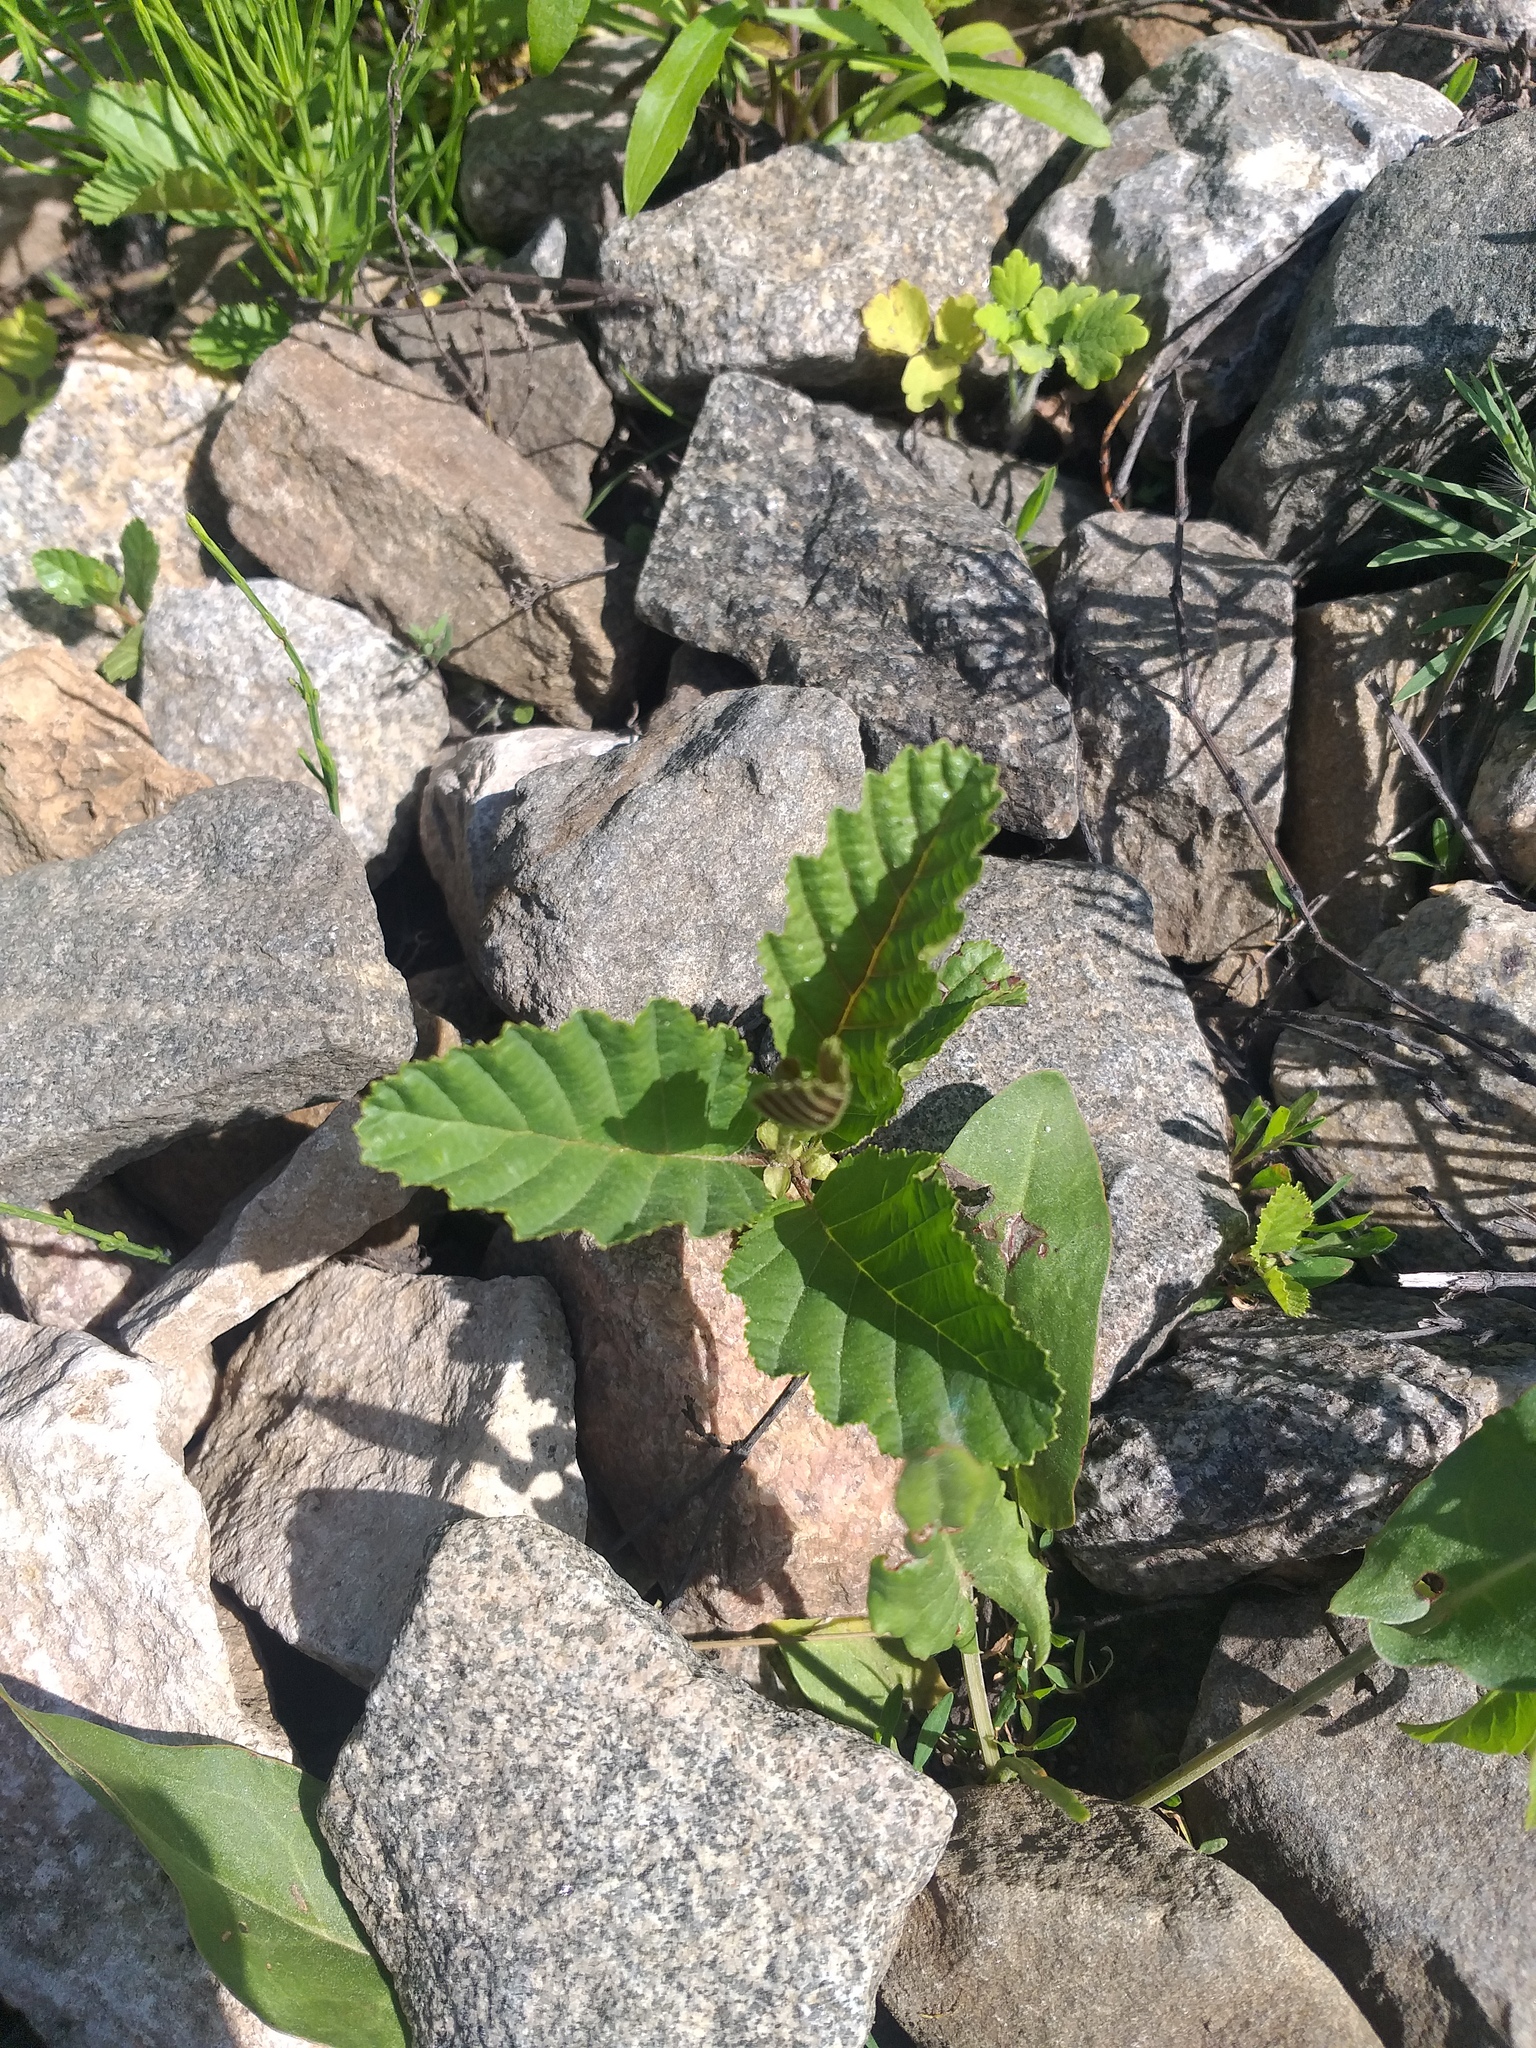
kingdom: Plantae
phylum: Tracheophyta
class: Magnoliopsida
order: Fagales
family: Betulaceae
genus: Alnus
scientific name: Alnus glutinosa
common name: Black alder
